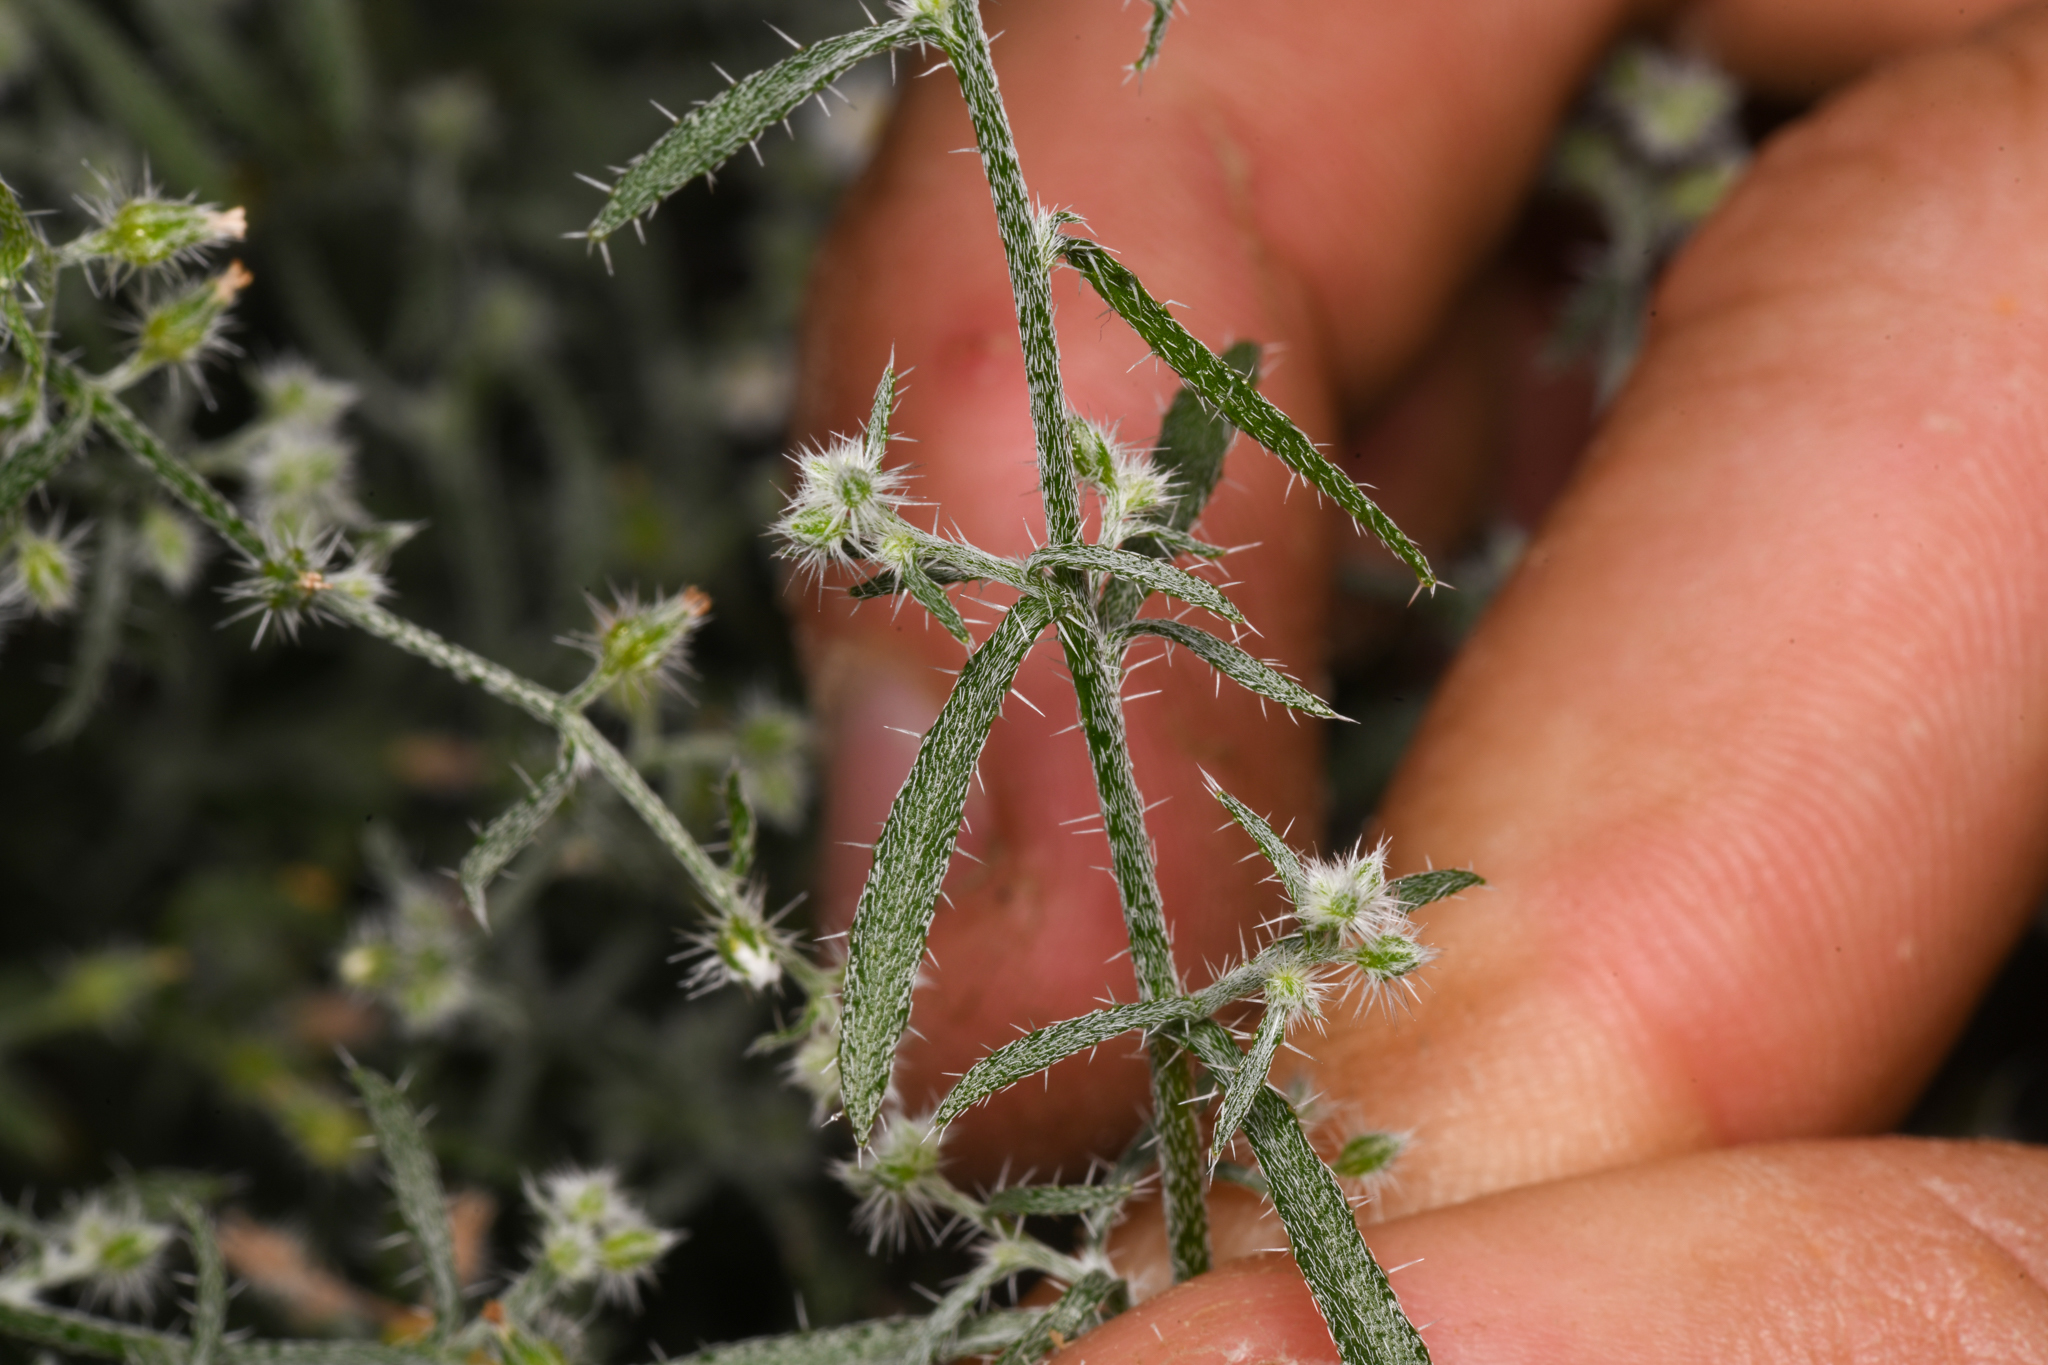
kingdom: Plantae
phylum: Tracheophyta
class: Magnoliopsida
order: Boraginales
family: Boraginaceae
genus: Johnstonella
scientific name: Johnstonella racemosa
